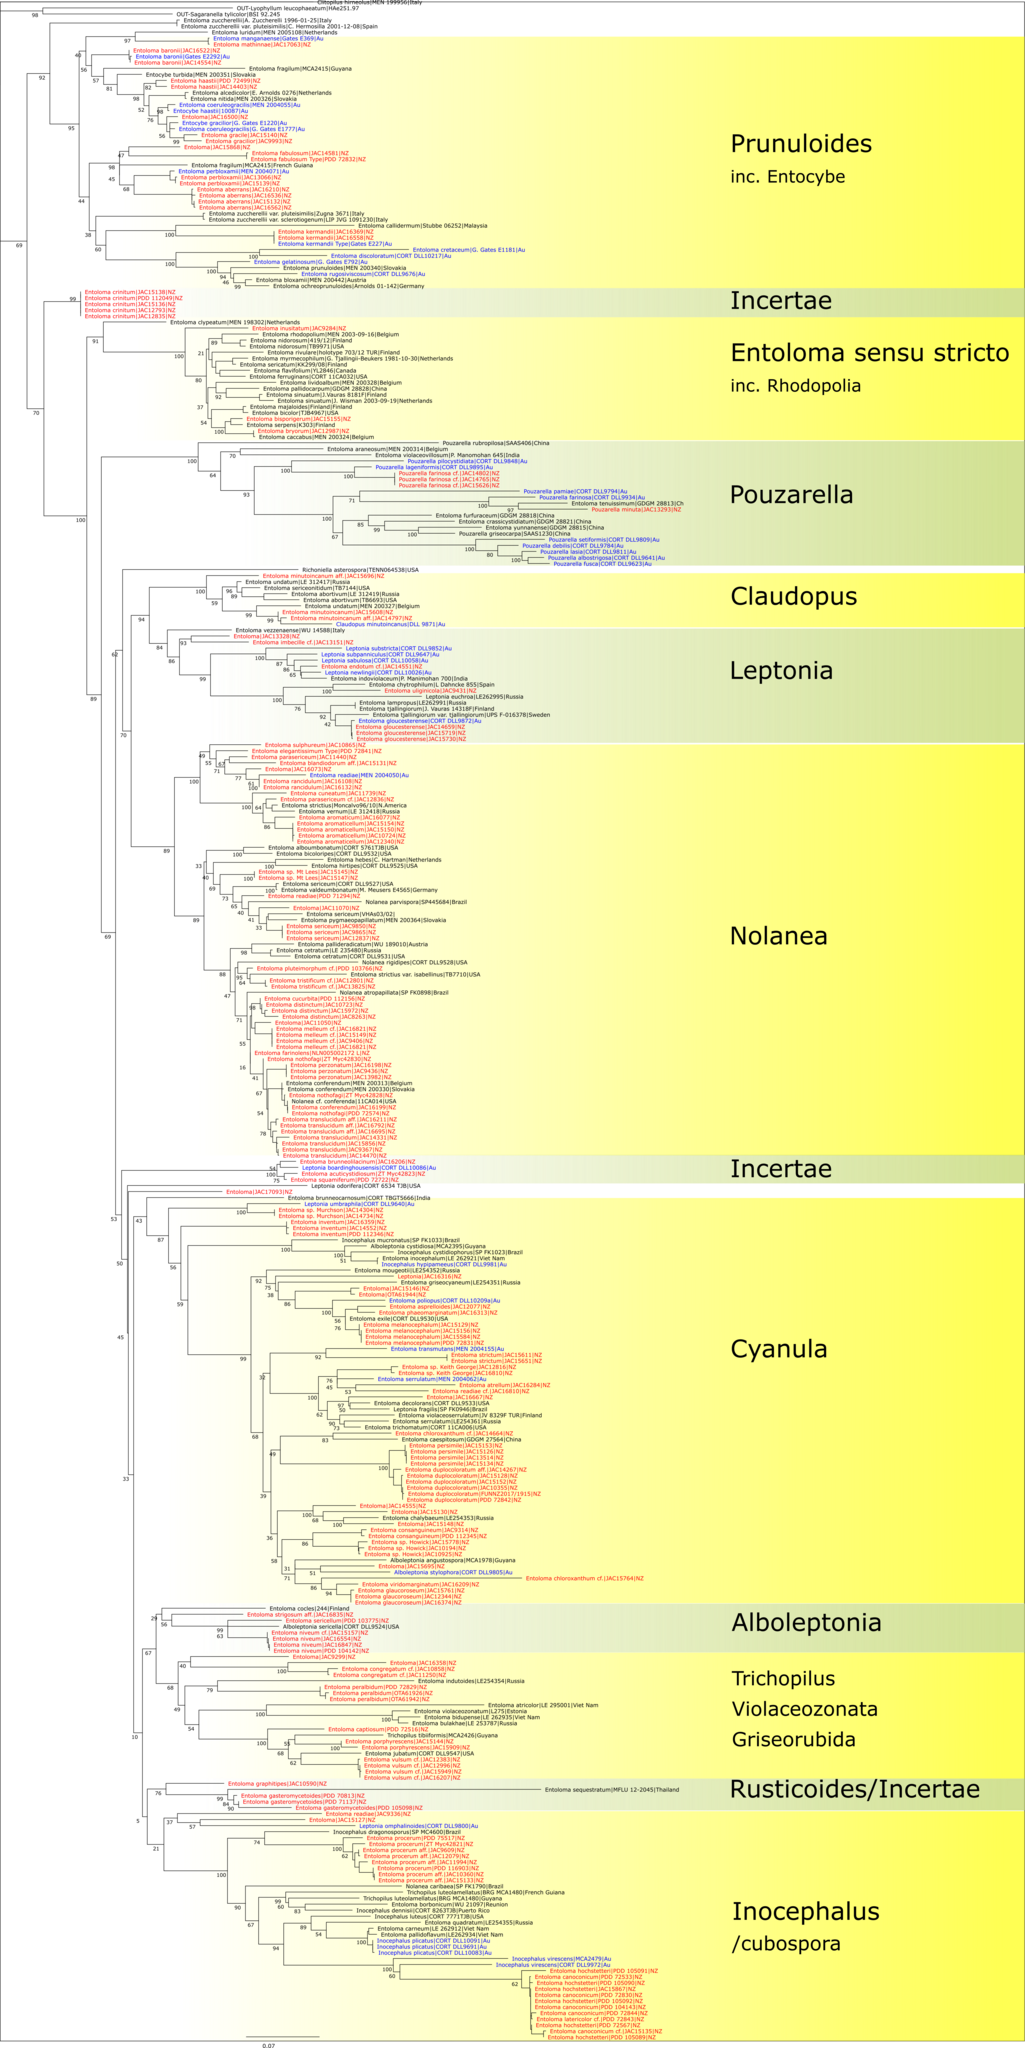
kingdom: Fungi
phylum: Basidiomycota
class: Agaricomycetes
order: Agaricales
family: Entolomataceae
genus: Entoloma
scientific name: Entoloma sericellum
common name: Cream pinkgill
